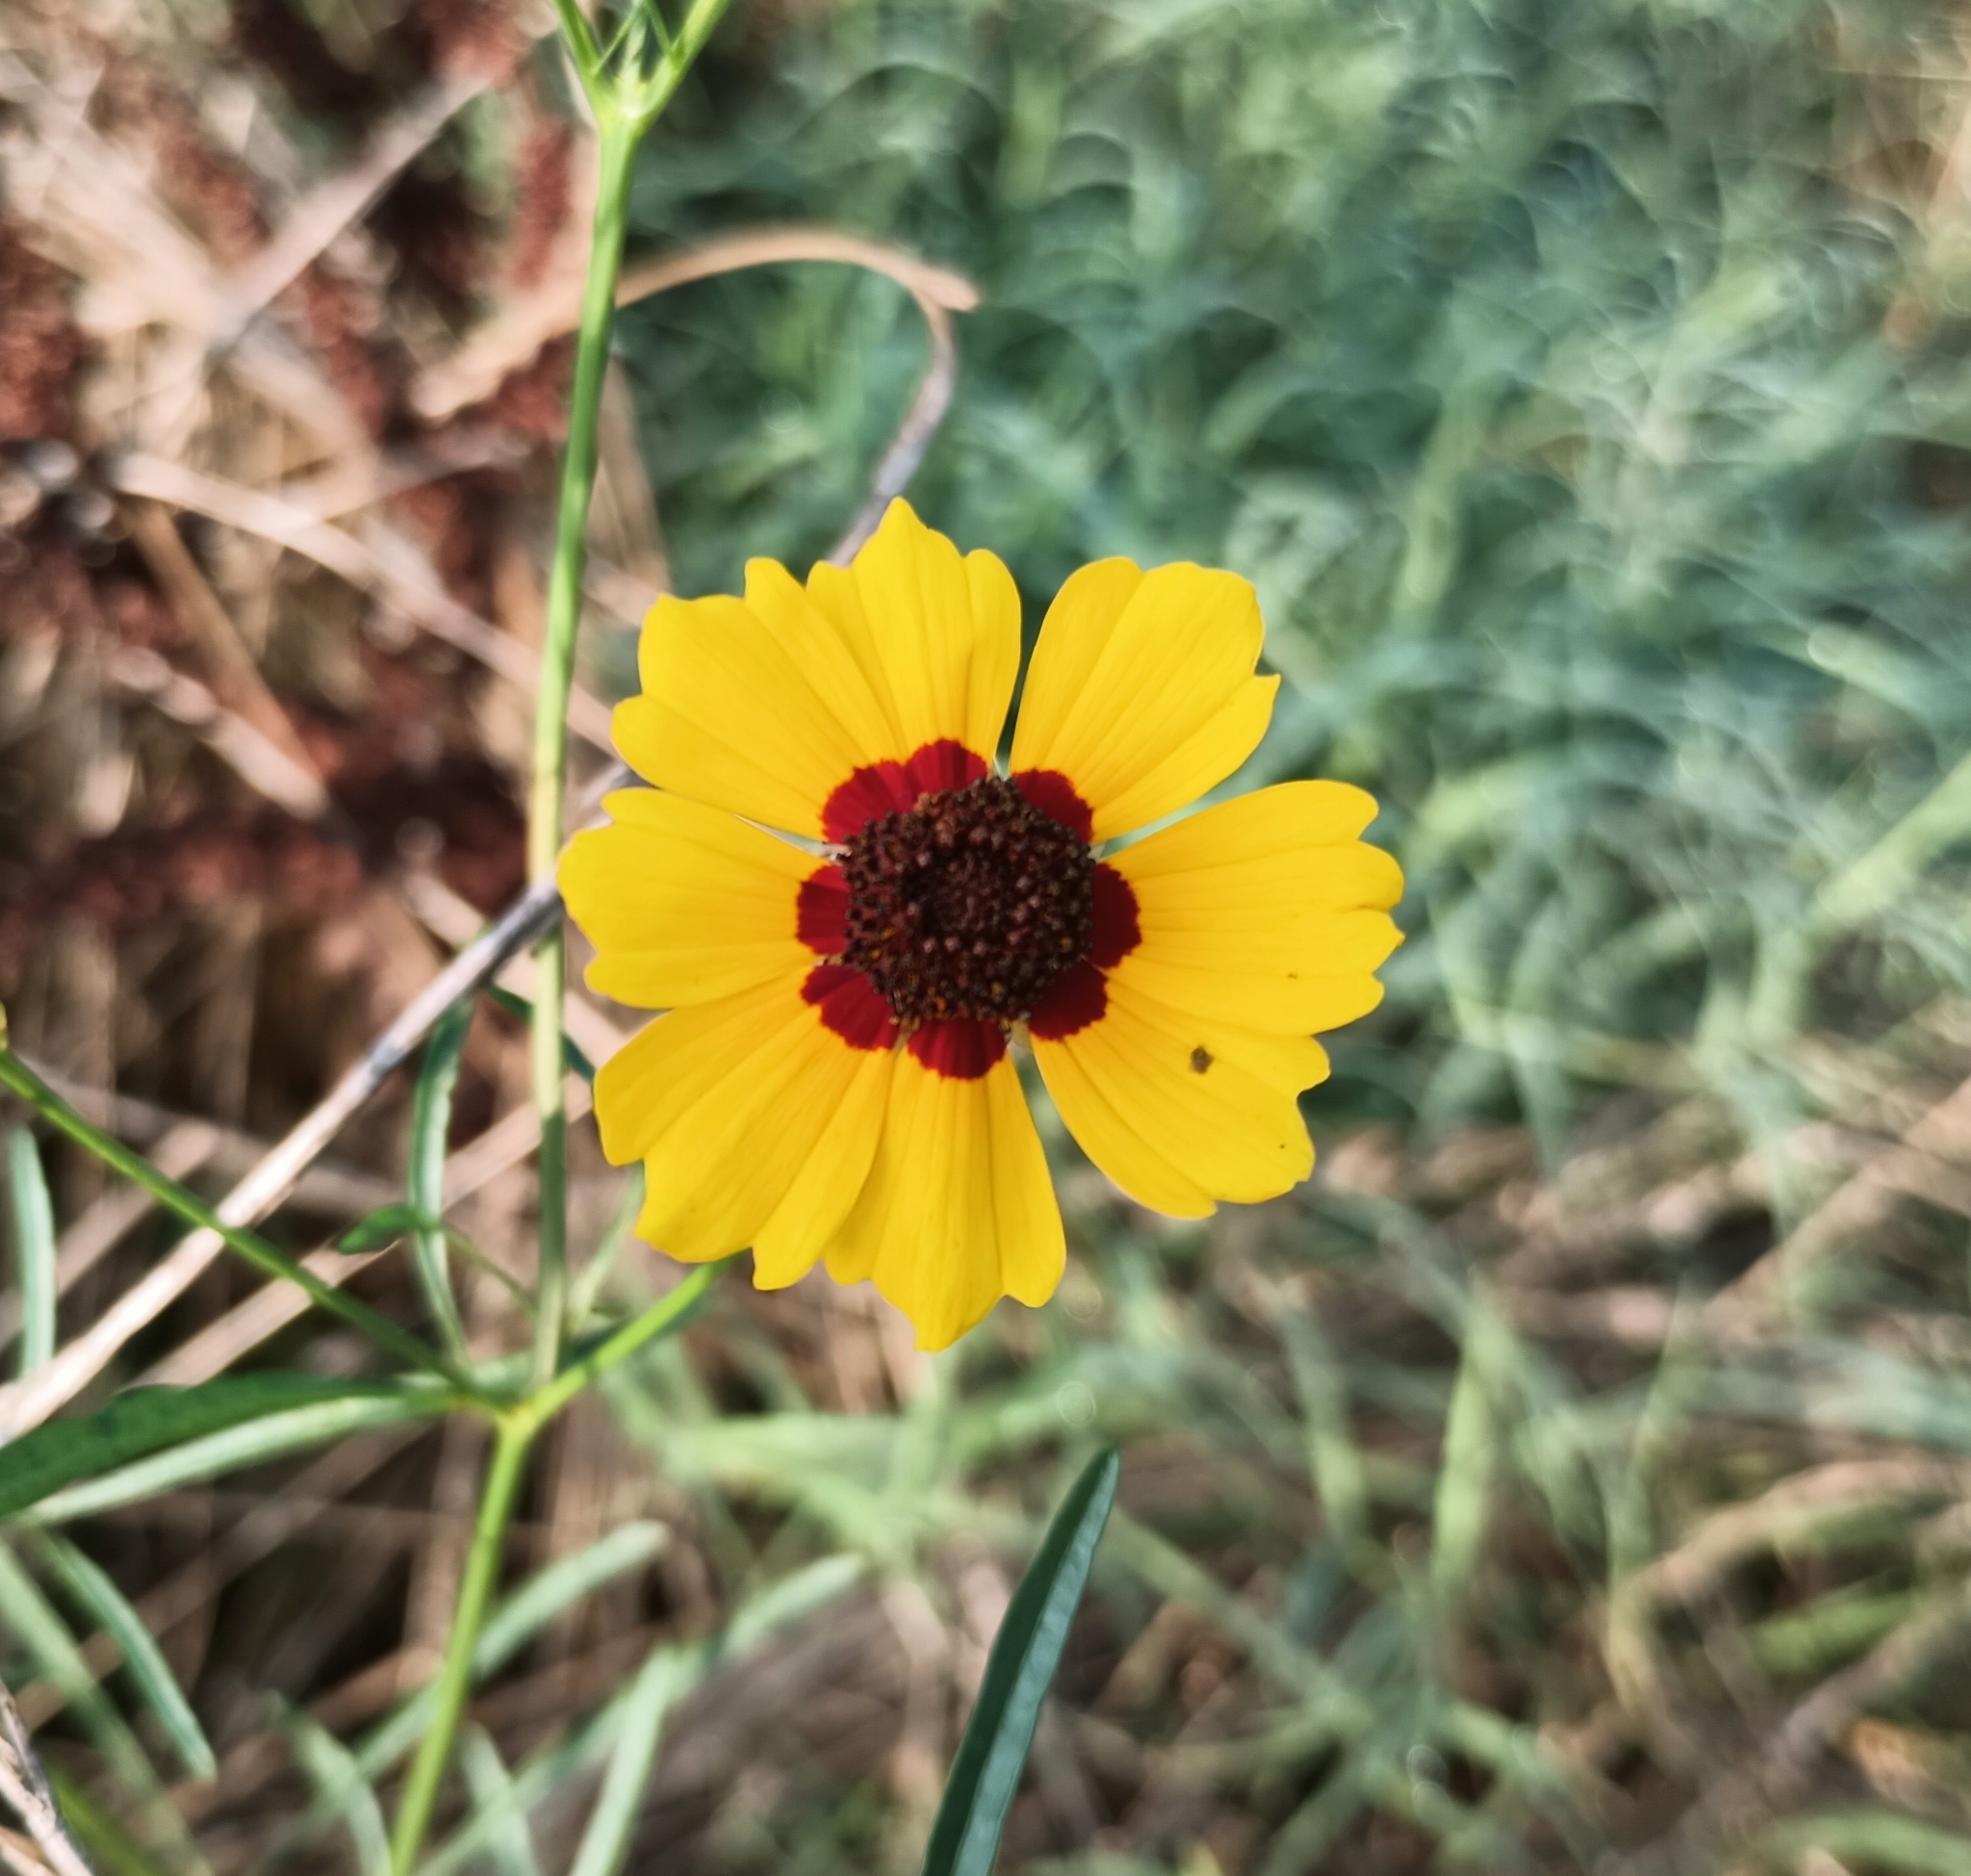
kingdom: Plantae
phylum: Tracheophyta
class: Magnoliopsida
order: Asterales
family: Asteraceae
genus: Coreopsis
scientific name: Coreopsis tinctoria
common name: Garden tickseed
